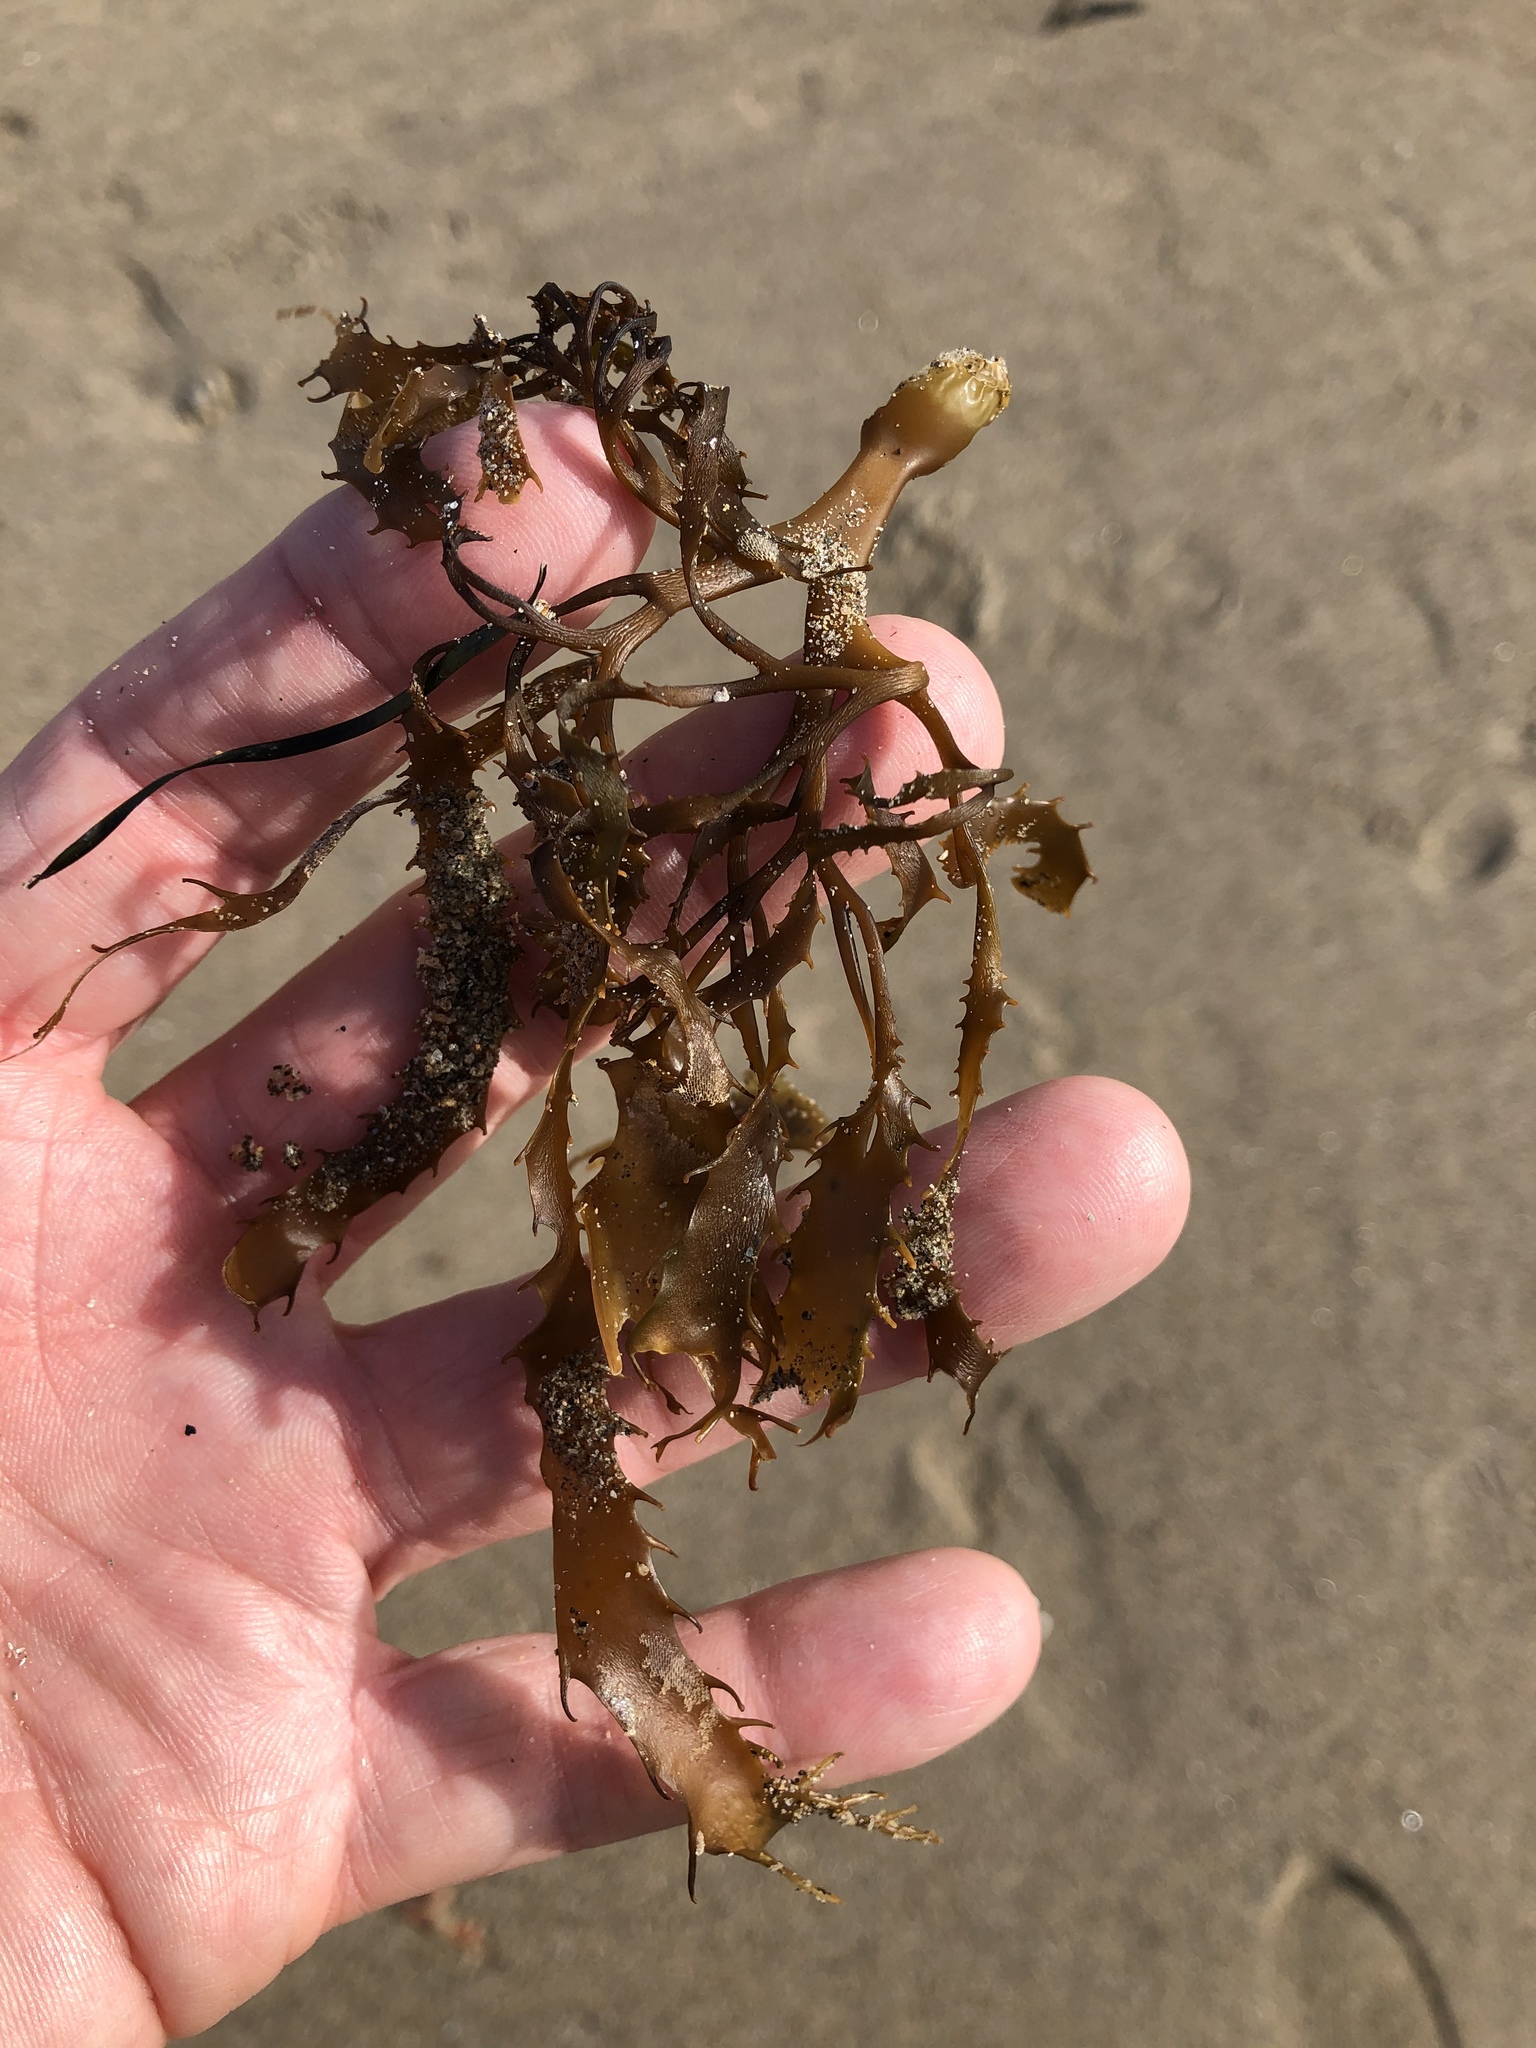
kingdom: Chromista
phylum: Ochrophyta
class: Phaeophyceae
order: Laminariales
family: Laminariaceae
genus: Macrocystis
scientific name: Macrocystis pyrifera
